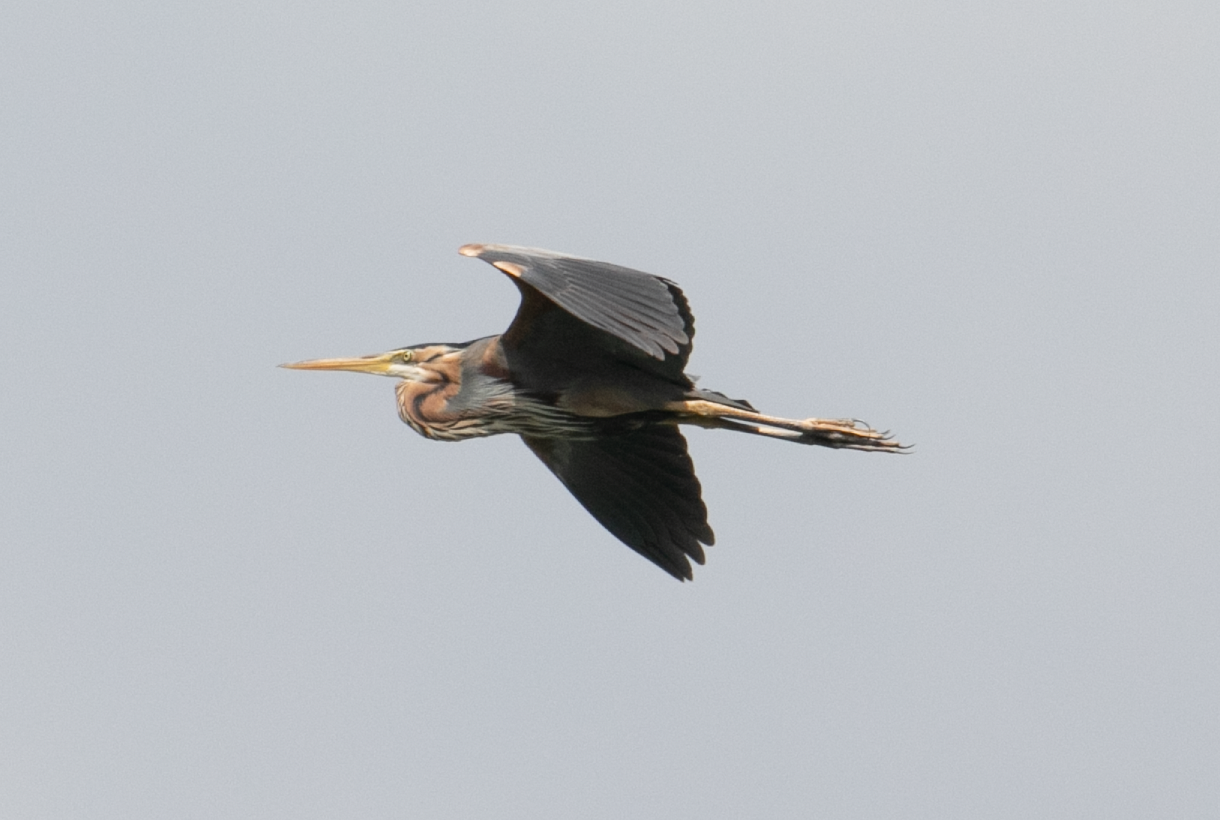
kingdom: Animalia
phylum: Chordata
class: Aves
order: Pelecaniformes
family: Ardeidae
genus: Ardea
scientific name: Ardea purpurea
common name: Purple heron
